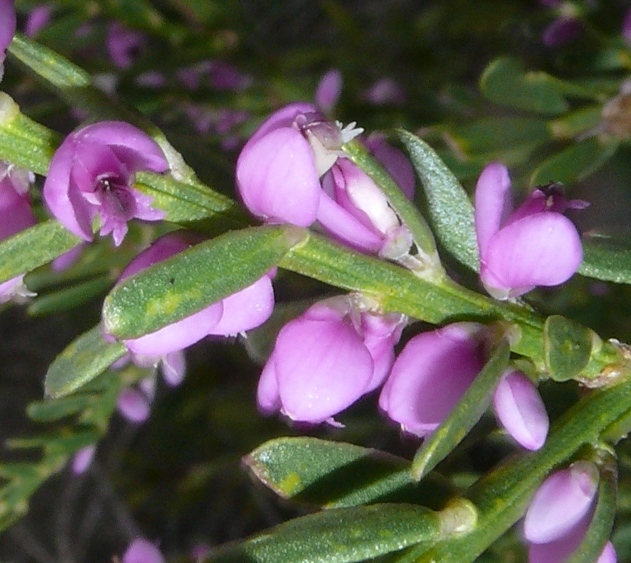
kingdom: Plantae
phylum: Tracheophyta
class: Magnoliopsida
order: Fabales
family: Polygalaceae
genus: Muraltia
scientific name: Muraltia spinosa
